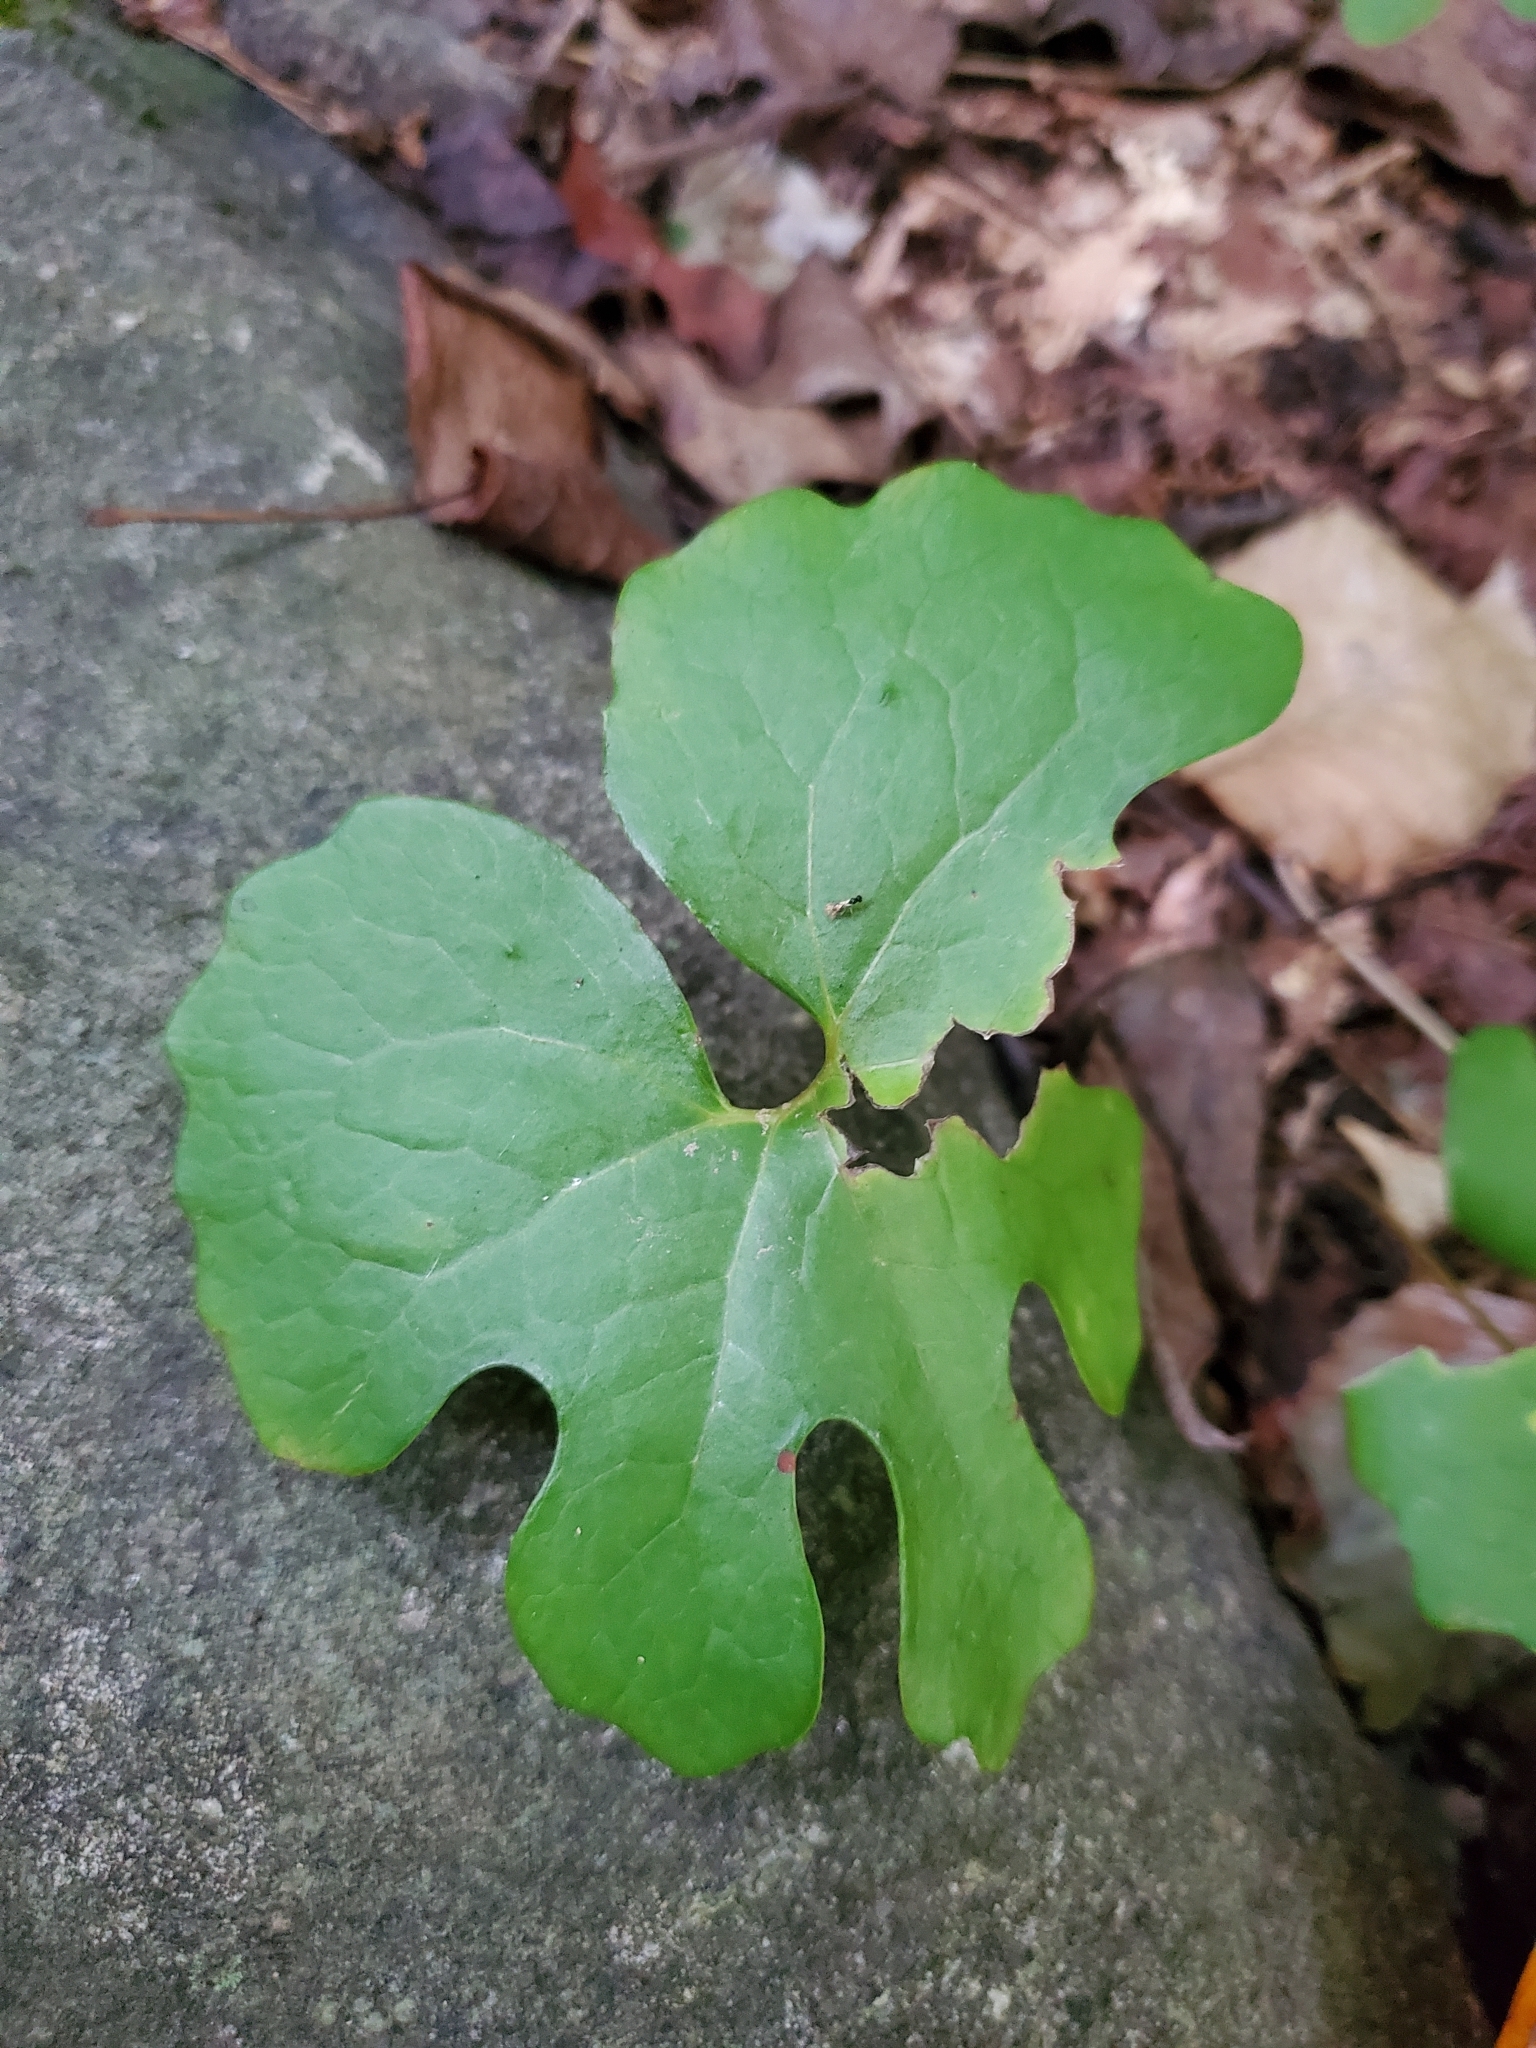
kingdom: Plantae
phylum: Tracheophyta
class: Magnoliopsida
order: Ranunculales
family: Papaveraceae
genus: Sanguinaria
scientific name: Sanguinaria canadensis
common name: Bloodroot
